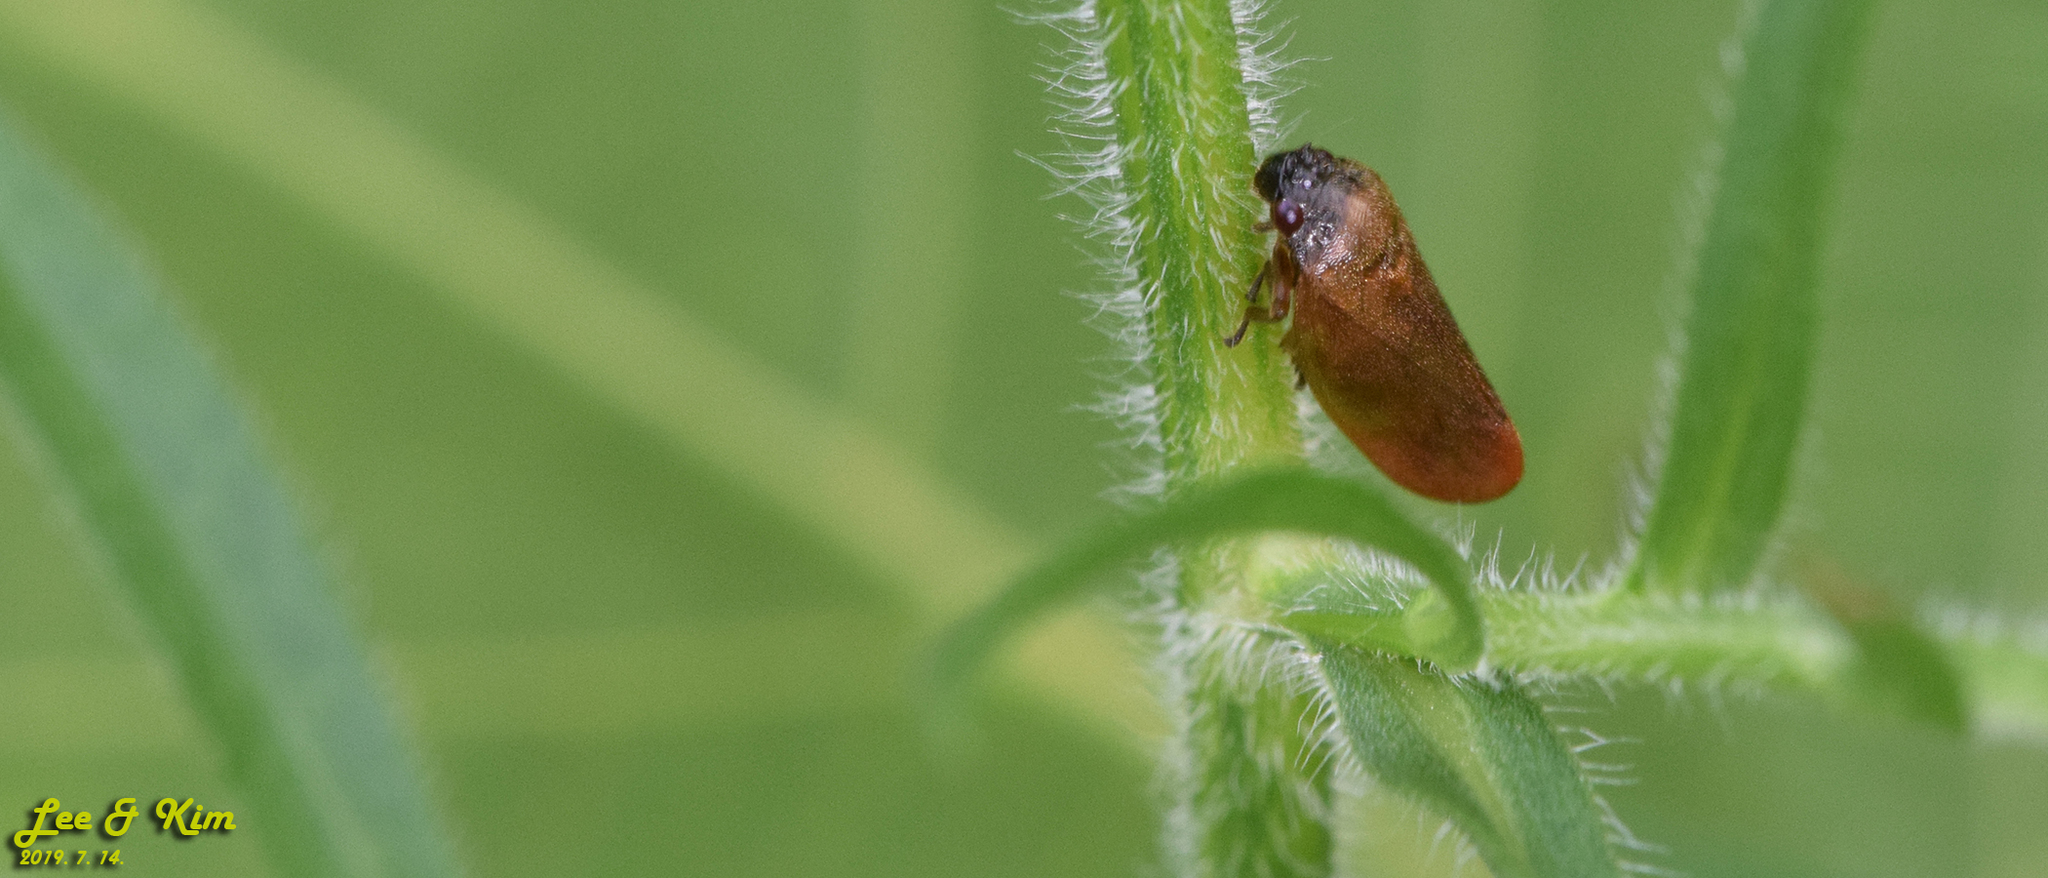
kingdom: Animalia
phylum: Arthropoda
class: Insecta
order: Hemiptera
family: Cercopidae
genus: Eoscarta
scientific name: Eoscarta assimilis
